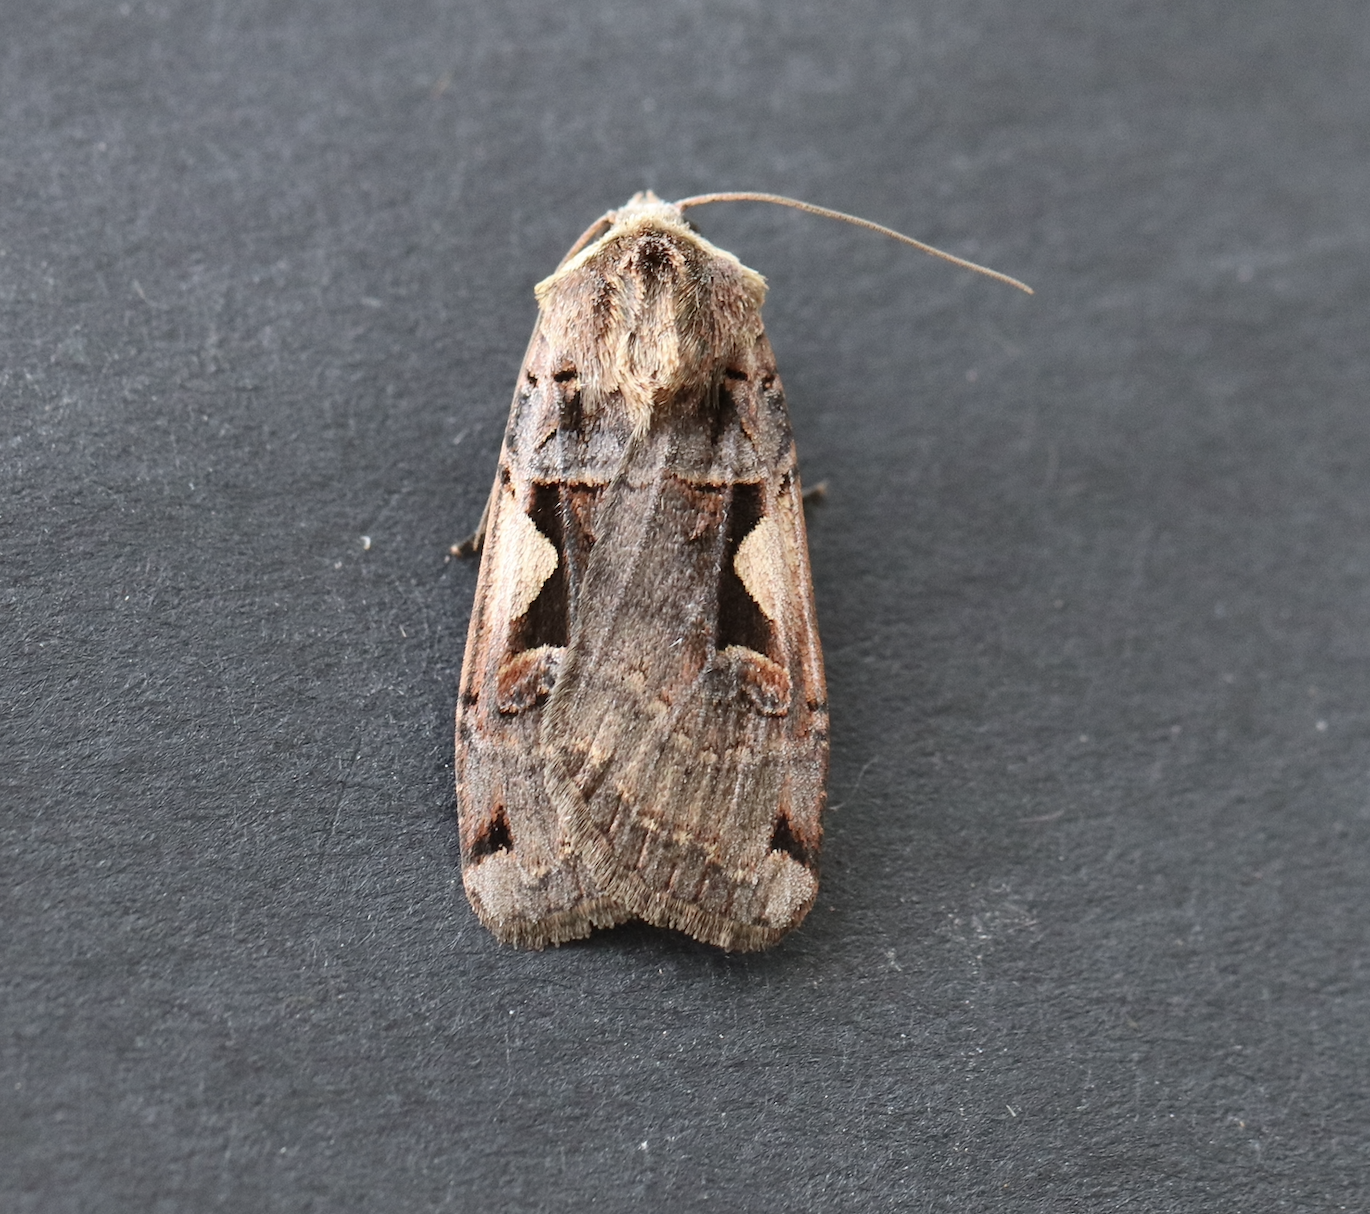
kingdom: Animalia
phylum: Arthropoda
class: Insecta
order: Lepidoptera
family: Noctuidae
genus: Xestia
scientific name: Xestia c-nigrum
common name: Setaceous hebrew character
